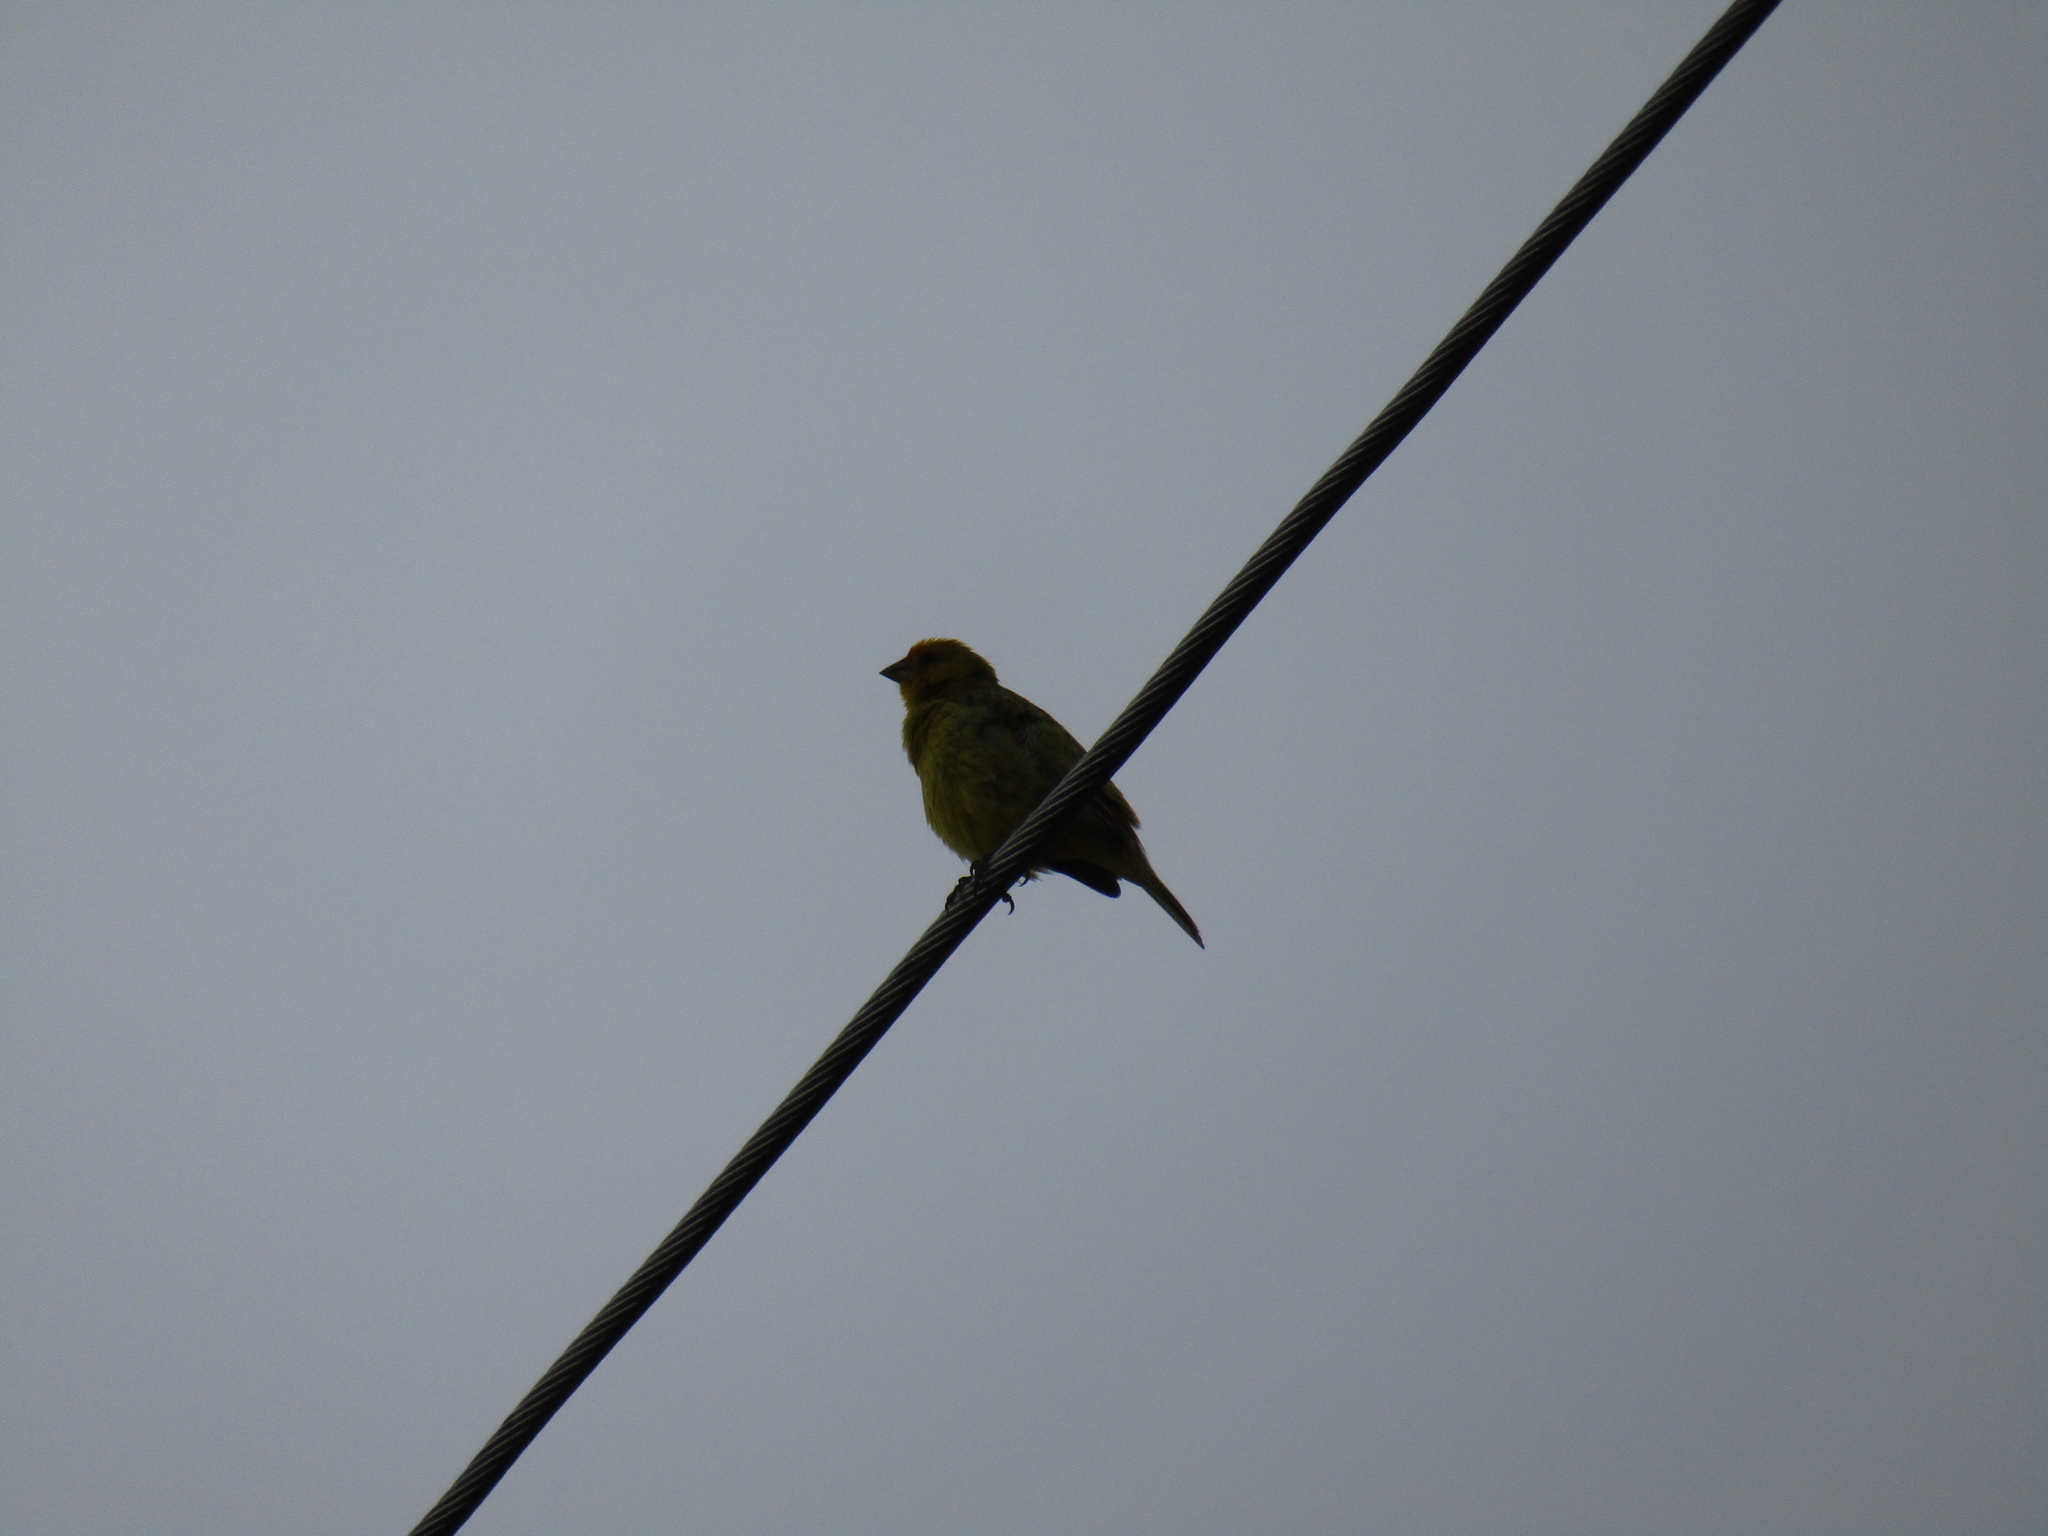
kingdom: Animalia
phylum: Chordata
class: Aves
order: Passeriformes
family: Thraupidae
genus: Sicalis
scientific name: Sicalis flaveola
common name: Saffron finch
